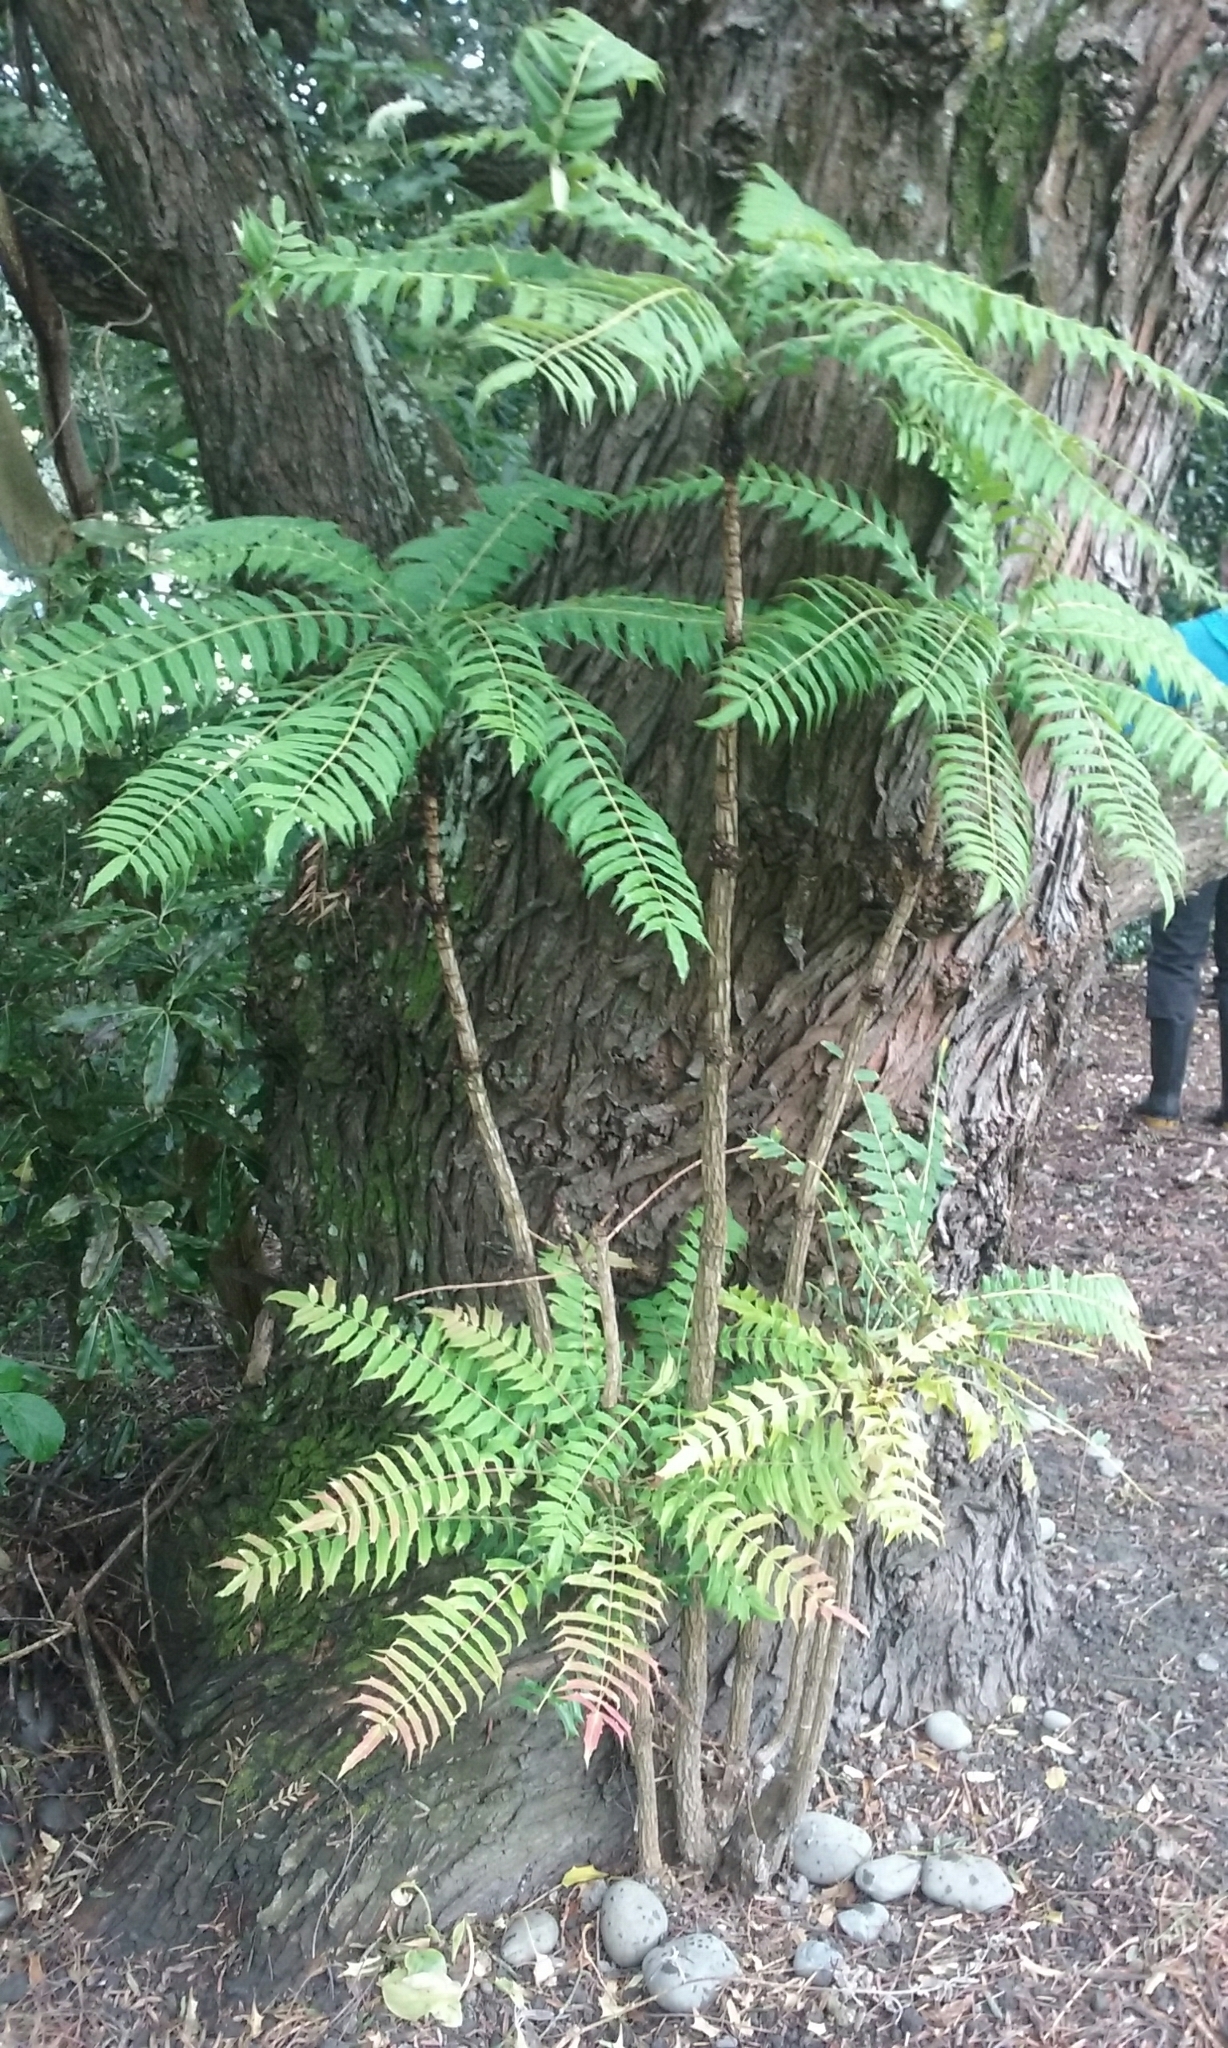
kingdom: Plantae
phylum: Tracheophyta
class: Magnoliopsida
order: Ranunculales
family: Berberidaceae
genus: Mahonia
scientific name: Mahonia oiwakensis
